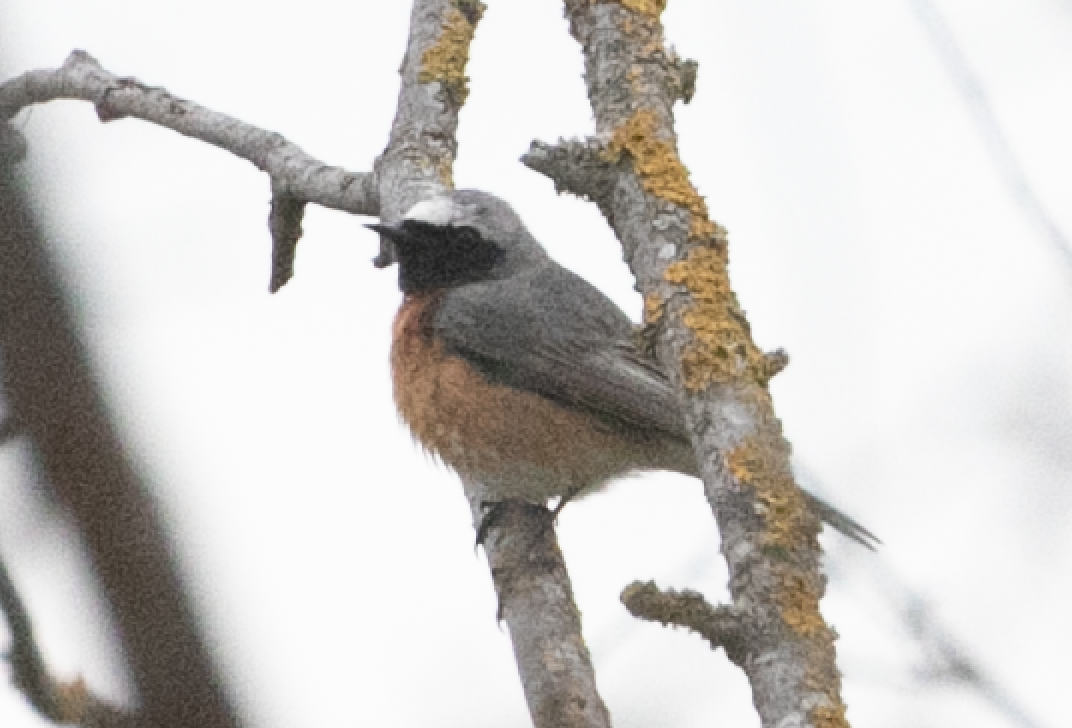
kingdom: Animalia
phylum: Chordata
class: Aves
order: Passeriformes
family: Muscicapidae
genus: Phoenicurus
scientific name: Phoenicurus phoenicurus
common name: Common redstart
